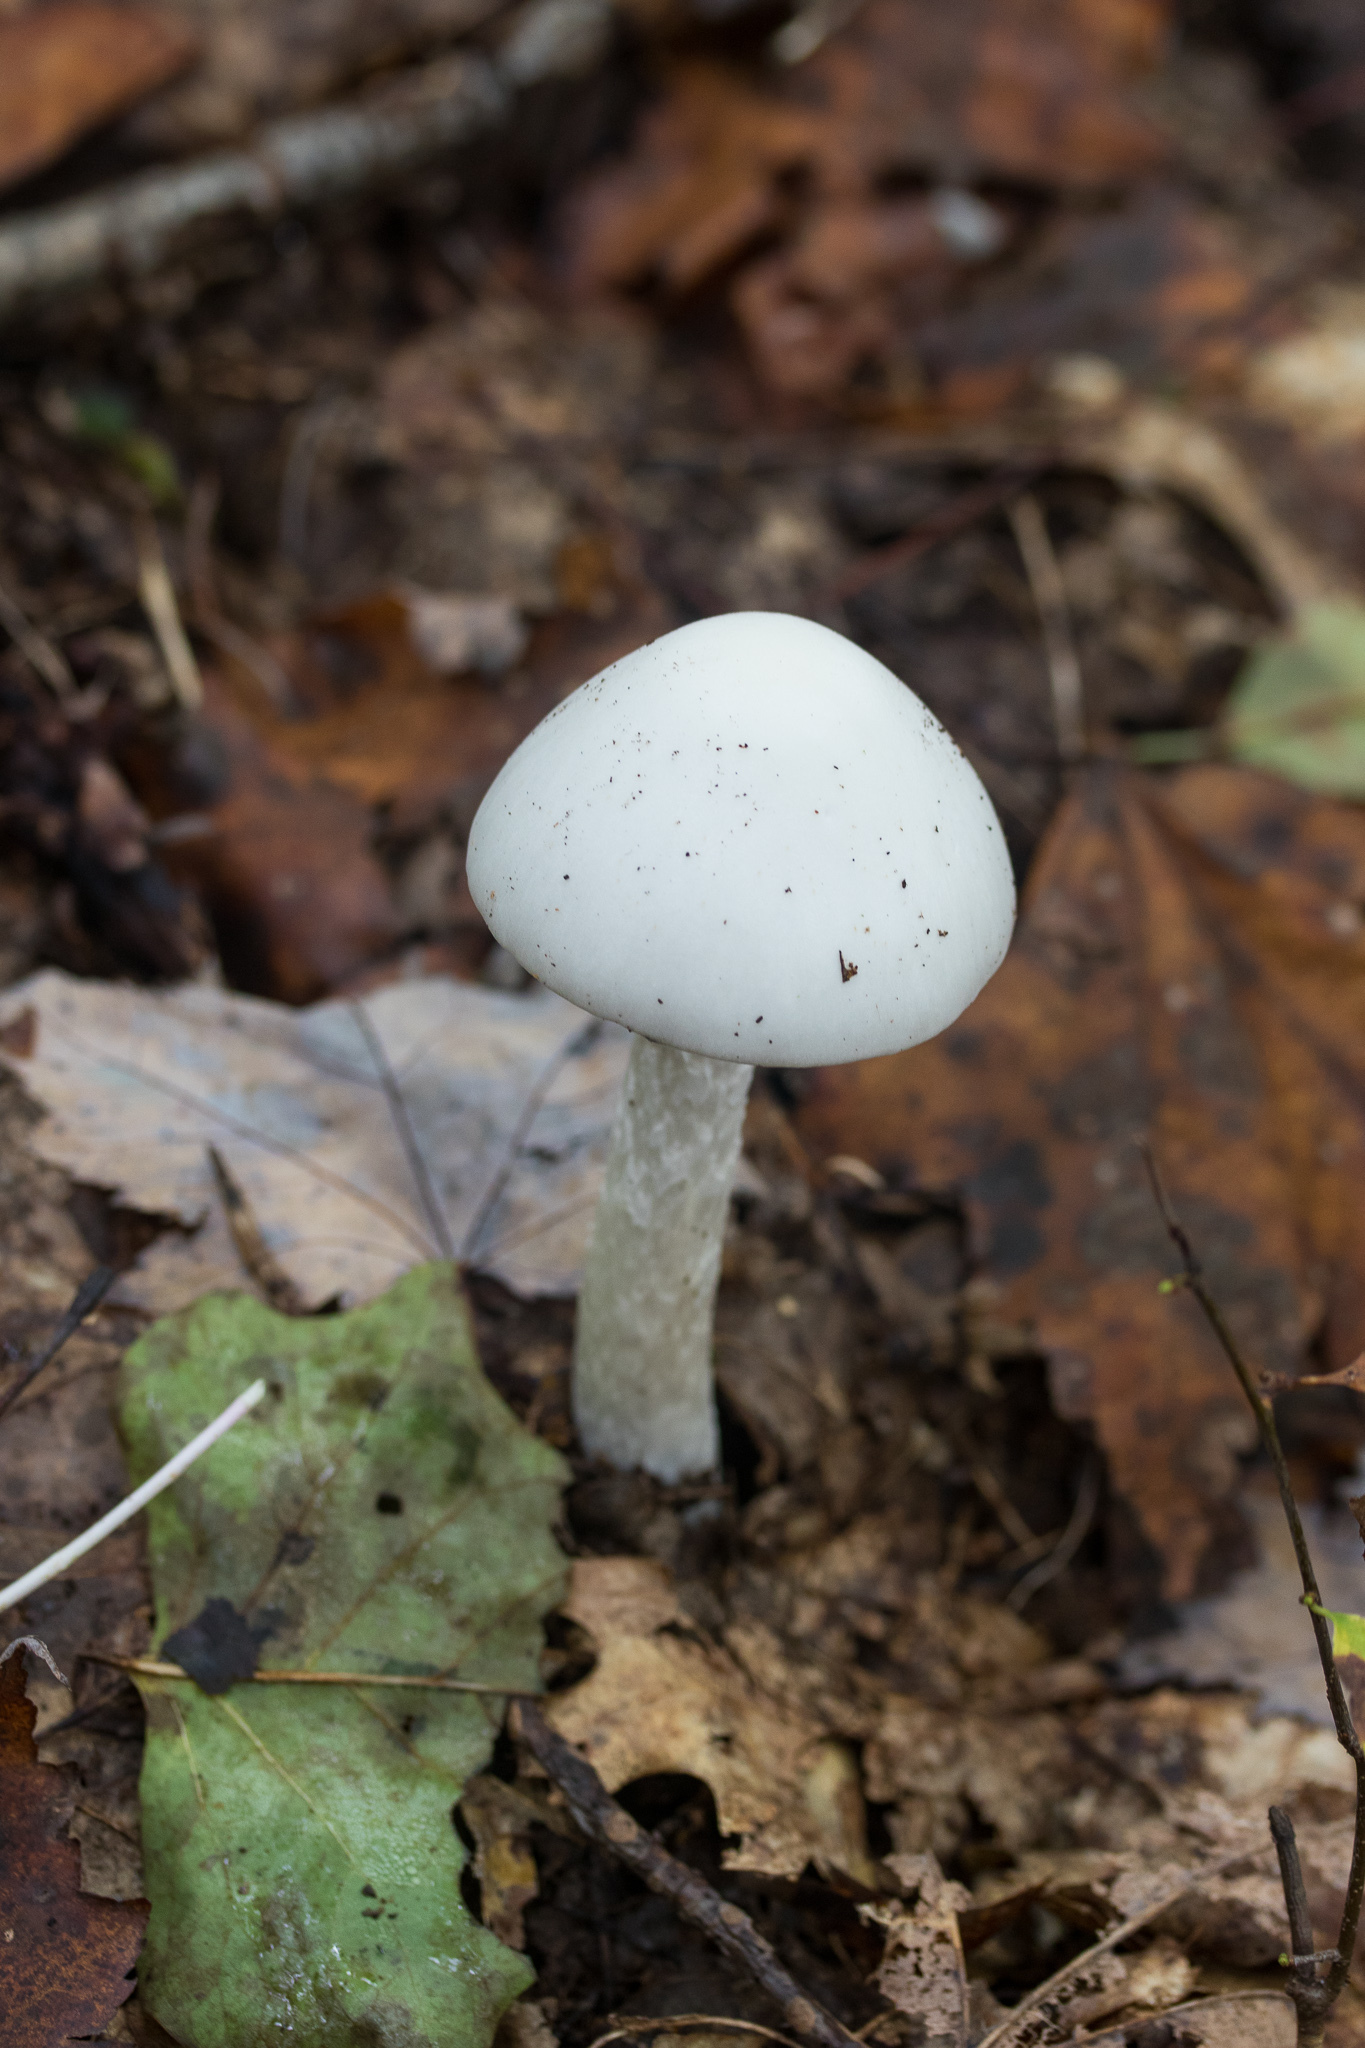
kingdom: Fungi
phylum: Basidiomycota
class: Agaricomycetes
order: Agaricales
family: Amanitaceae
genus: Amanita
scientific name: Amanita bisporigera
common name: Eastern north american destroying angel
